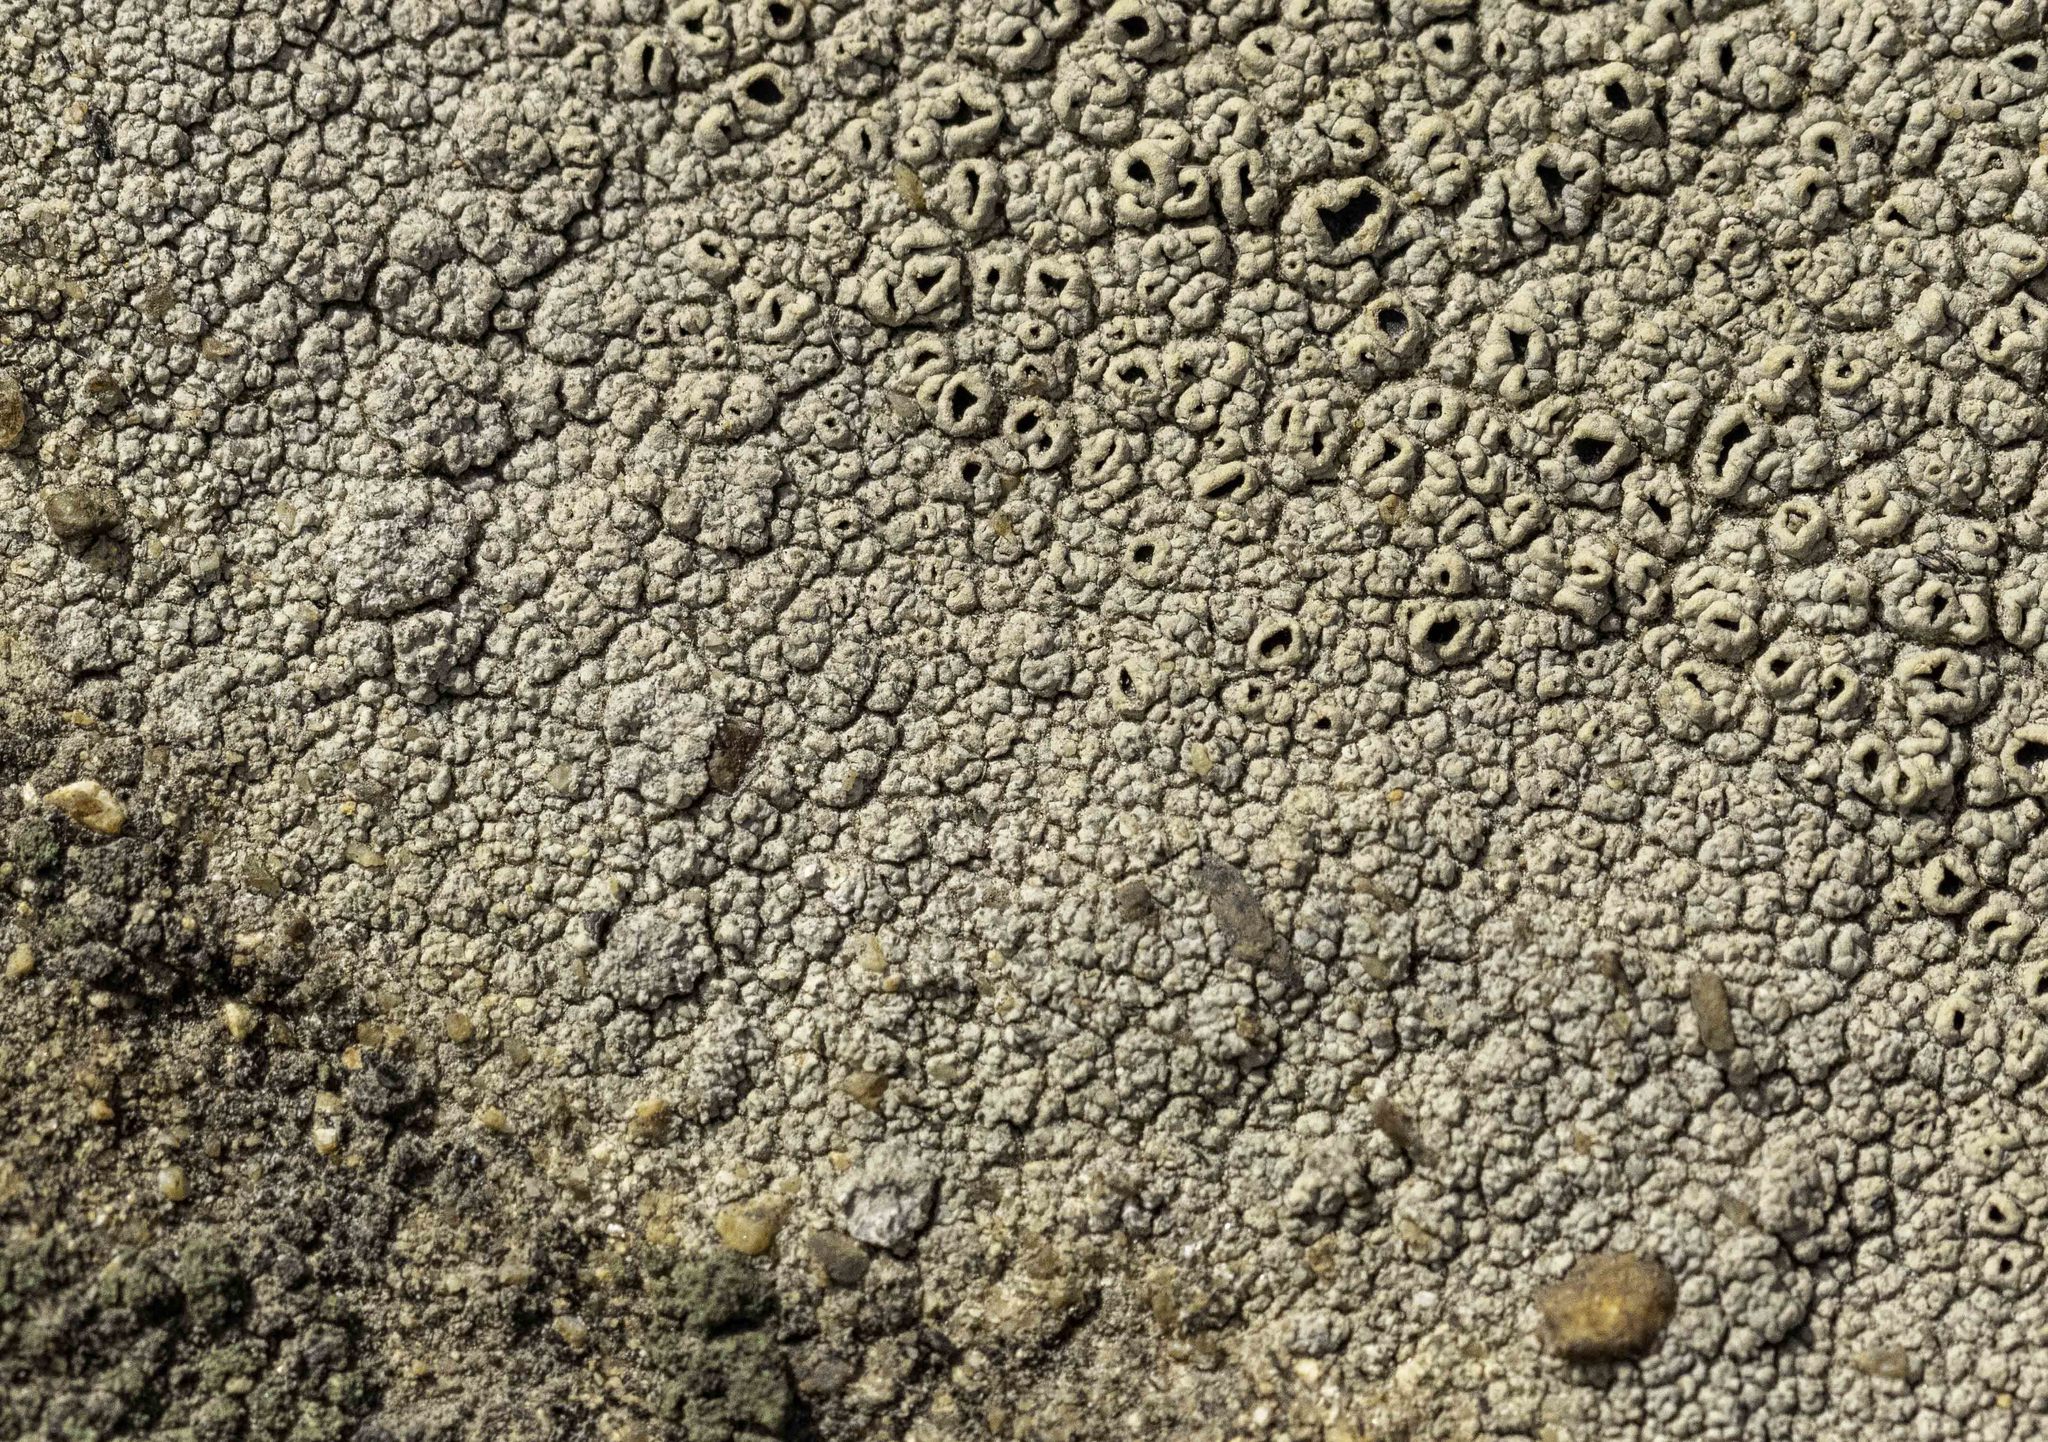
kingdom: Fungi
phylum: Ascomycota
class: Lecanoromycetes
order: Ostropales
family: Graphidaceae
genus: Diploschistes
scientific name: Diploschistes scruposus
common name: Crater lichen
